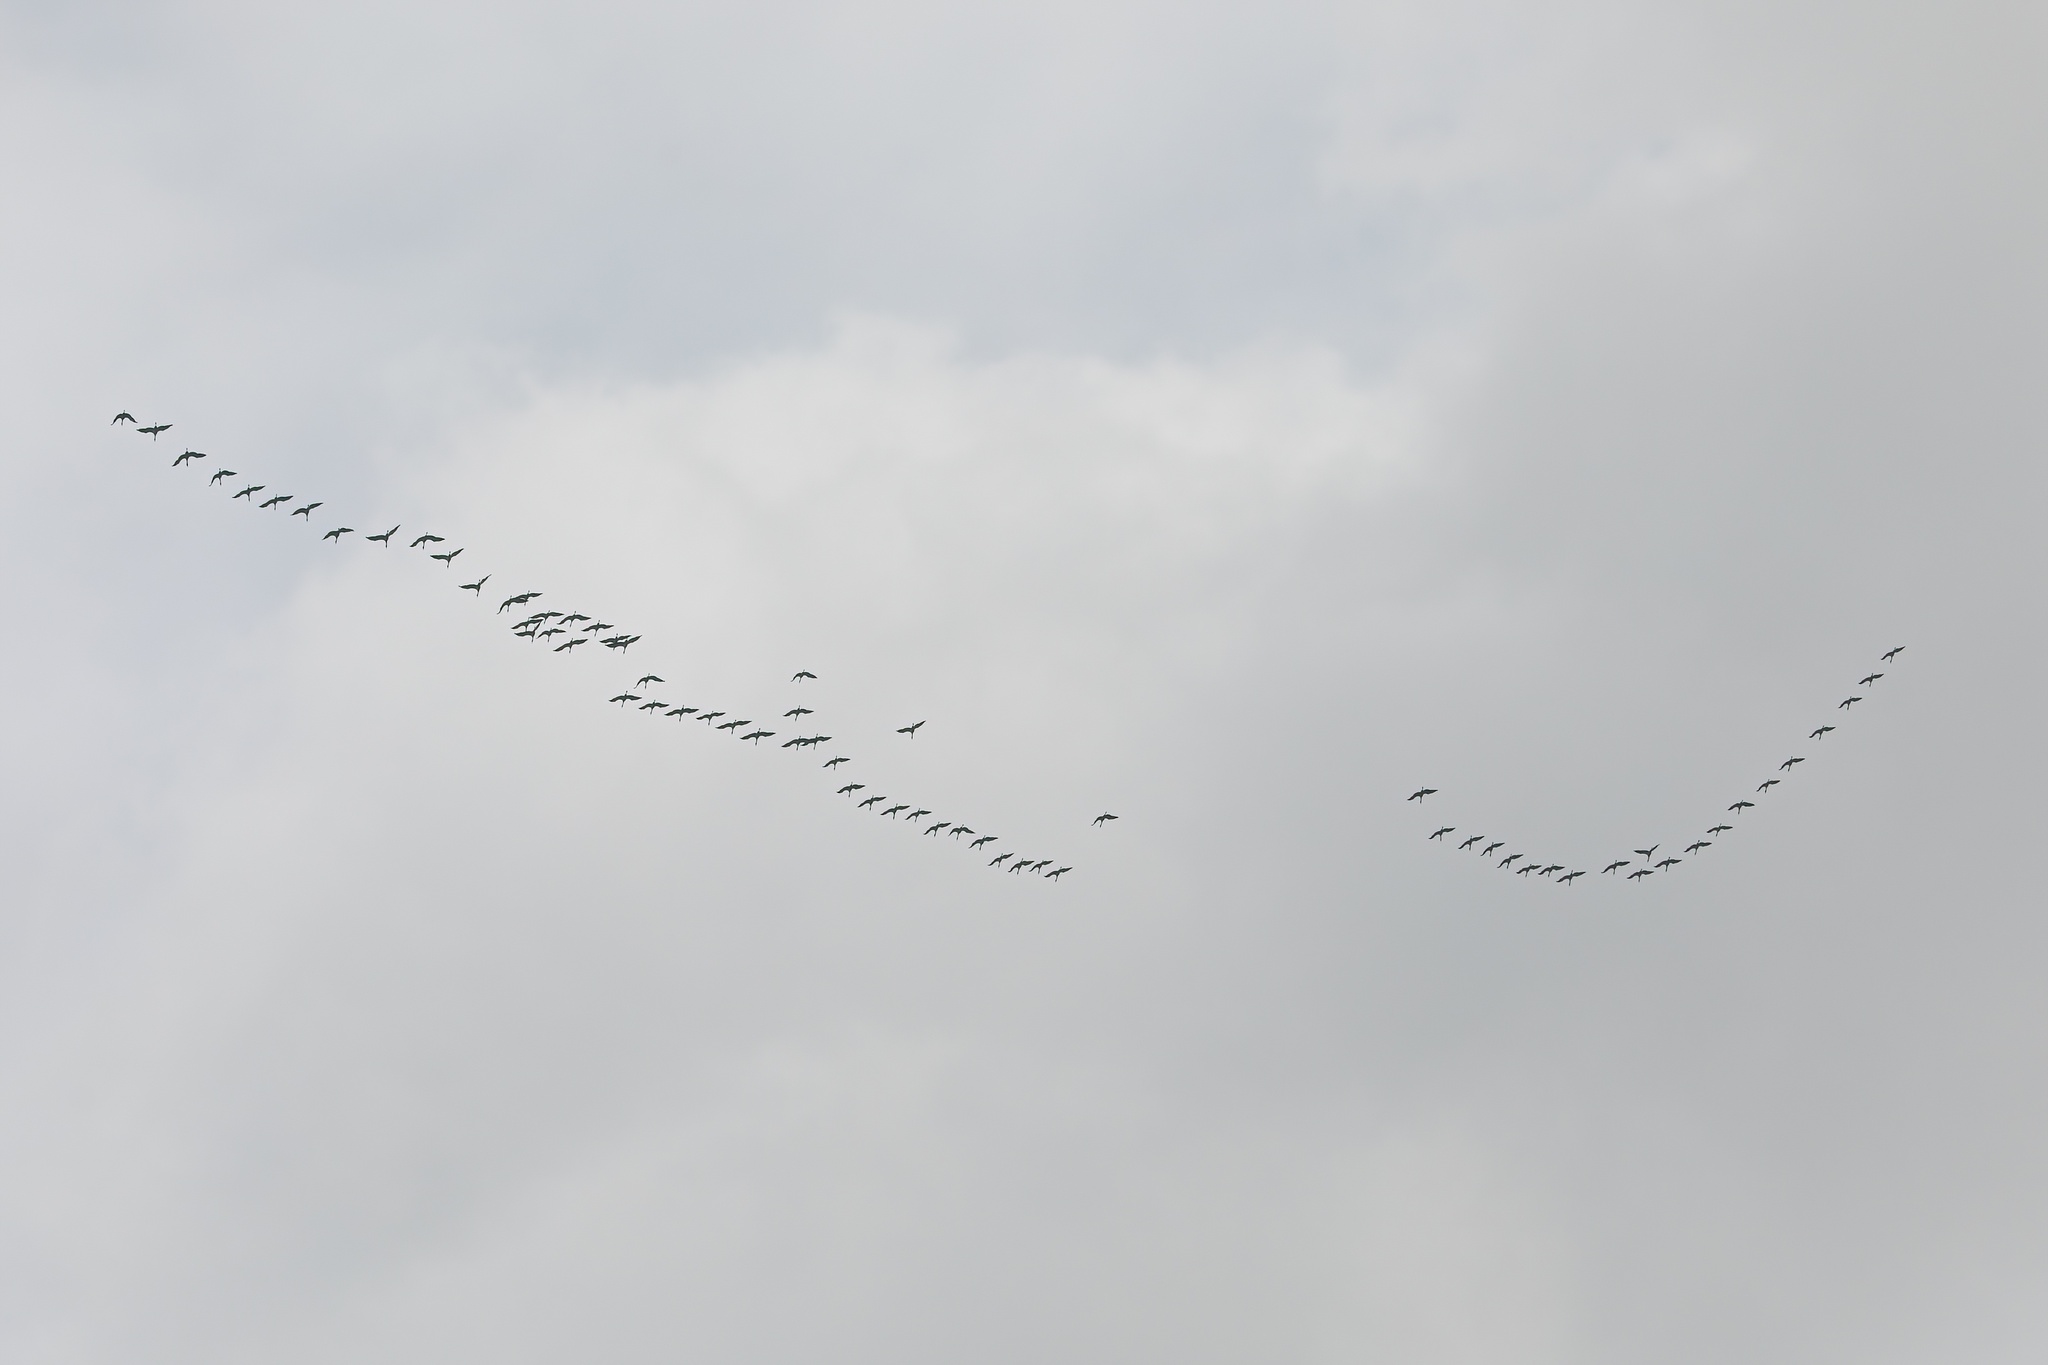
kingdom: Animalia
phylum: Chordata
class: Aves
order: Gruiformes
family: Gruidae
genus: Grus
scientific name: Grus grus
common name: Common crane
